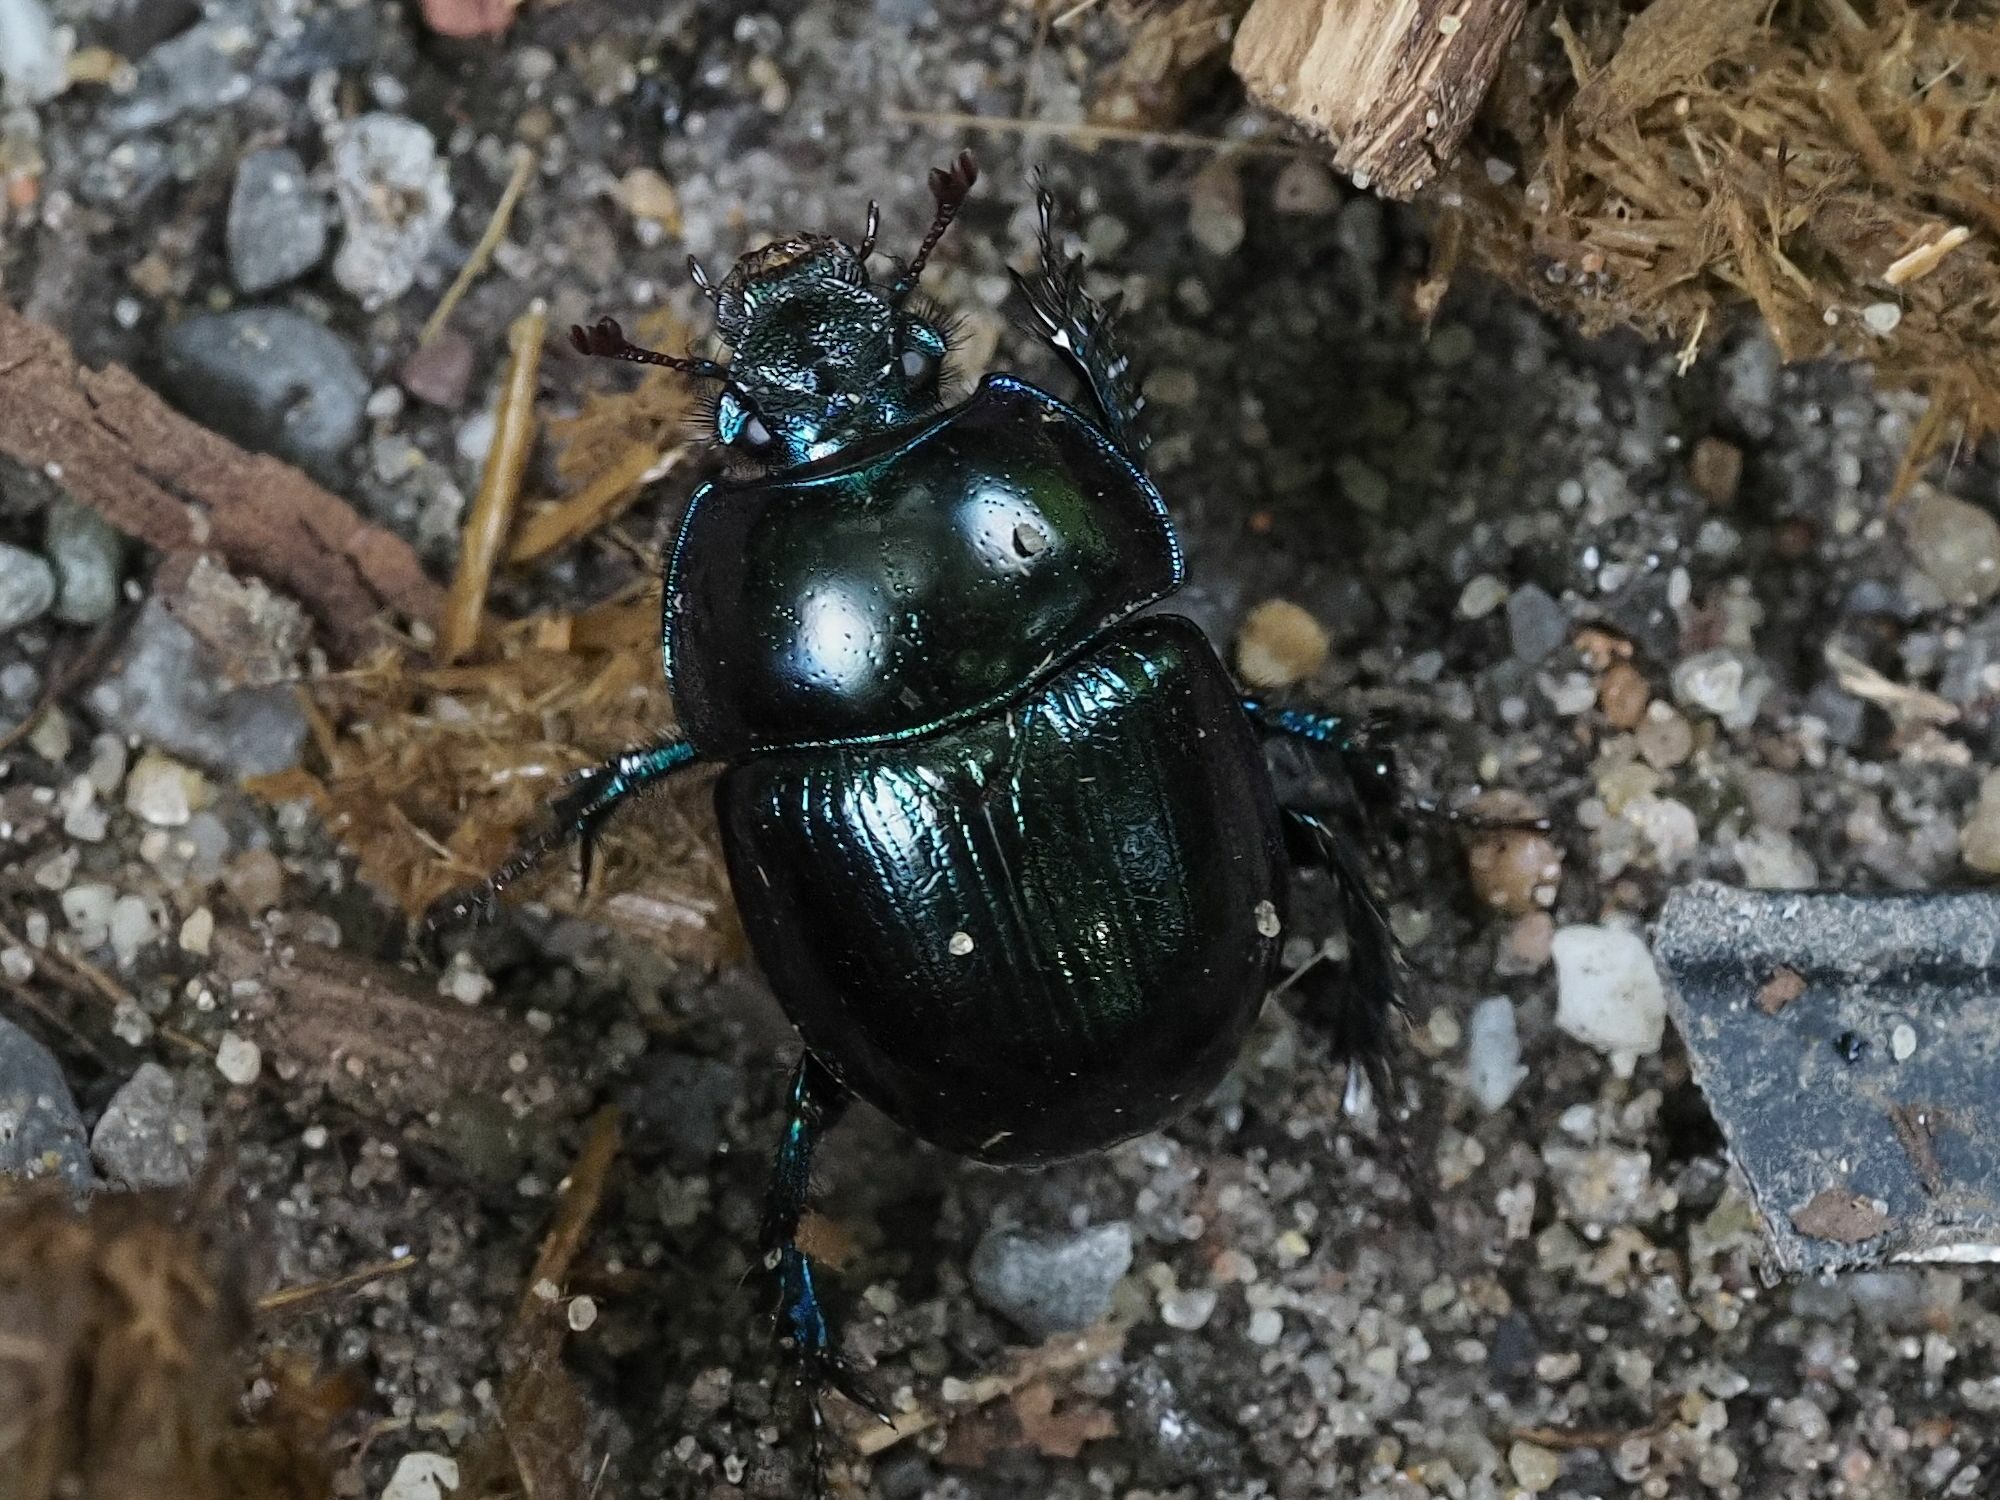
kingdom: Animalia
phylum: Arthropoda
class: Insecta
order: Coleoptera
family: Geotrupidae
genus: Anoplotrupes
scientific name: Anoplotrupes stercorosus
